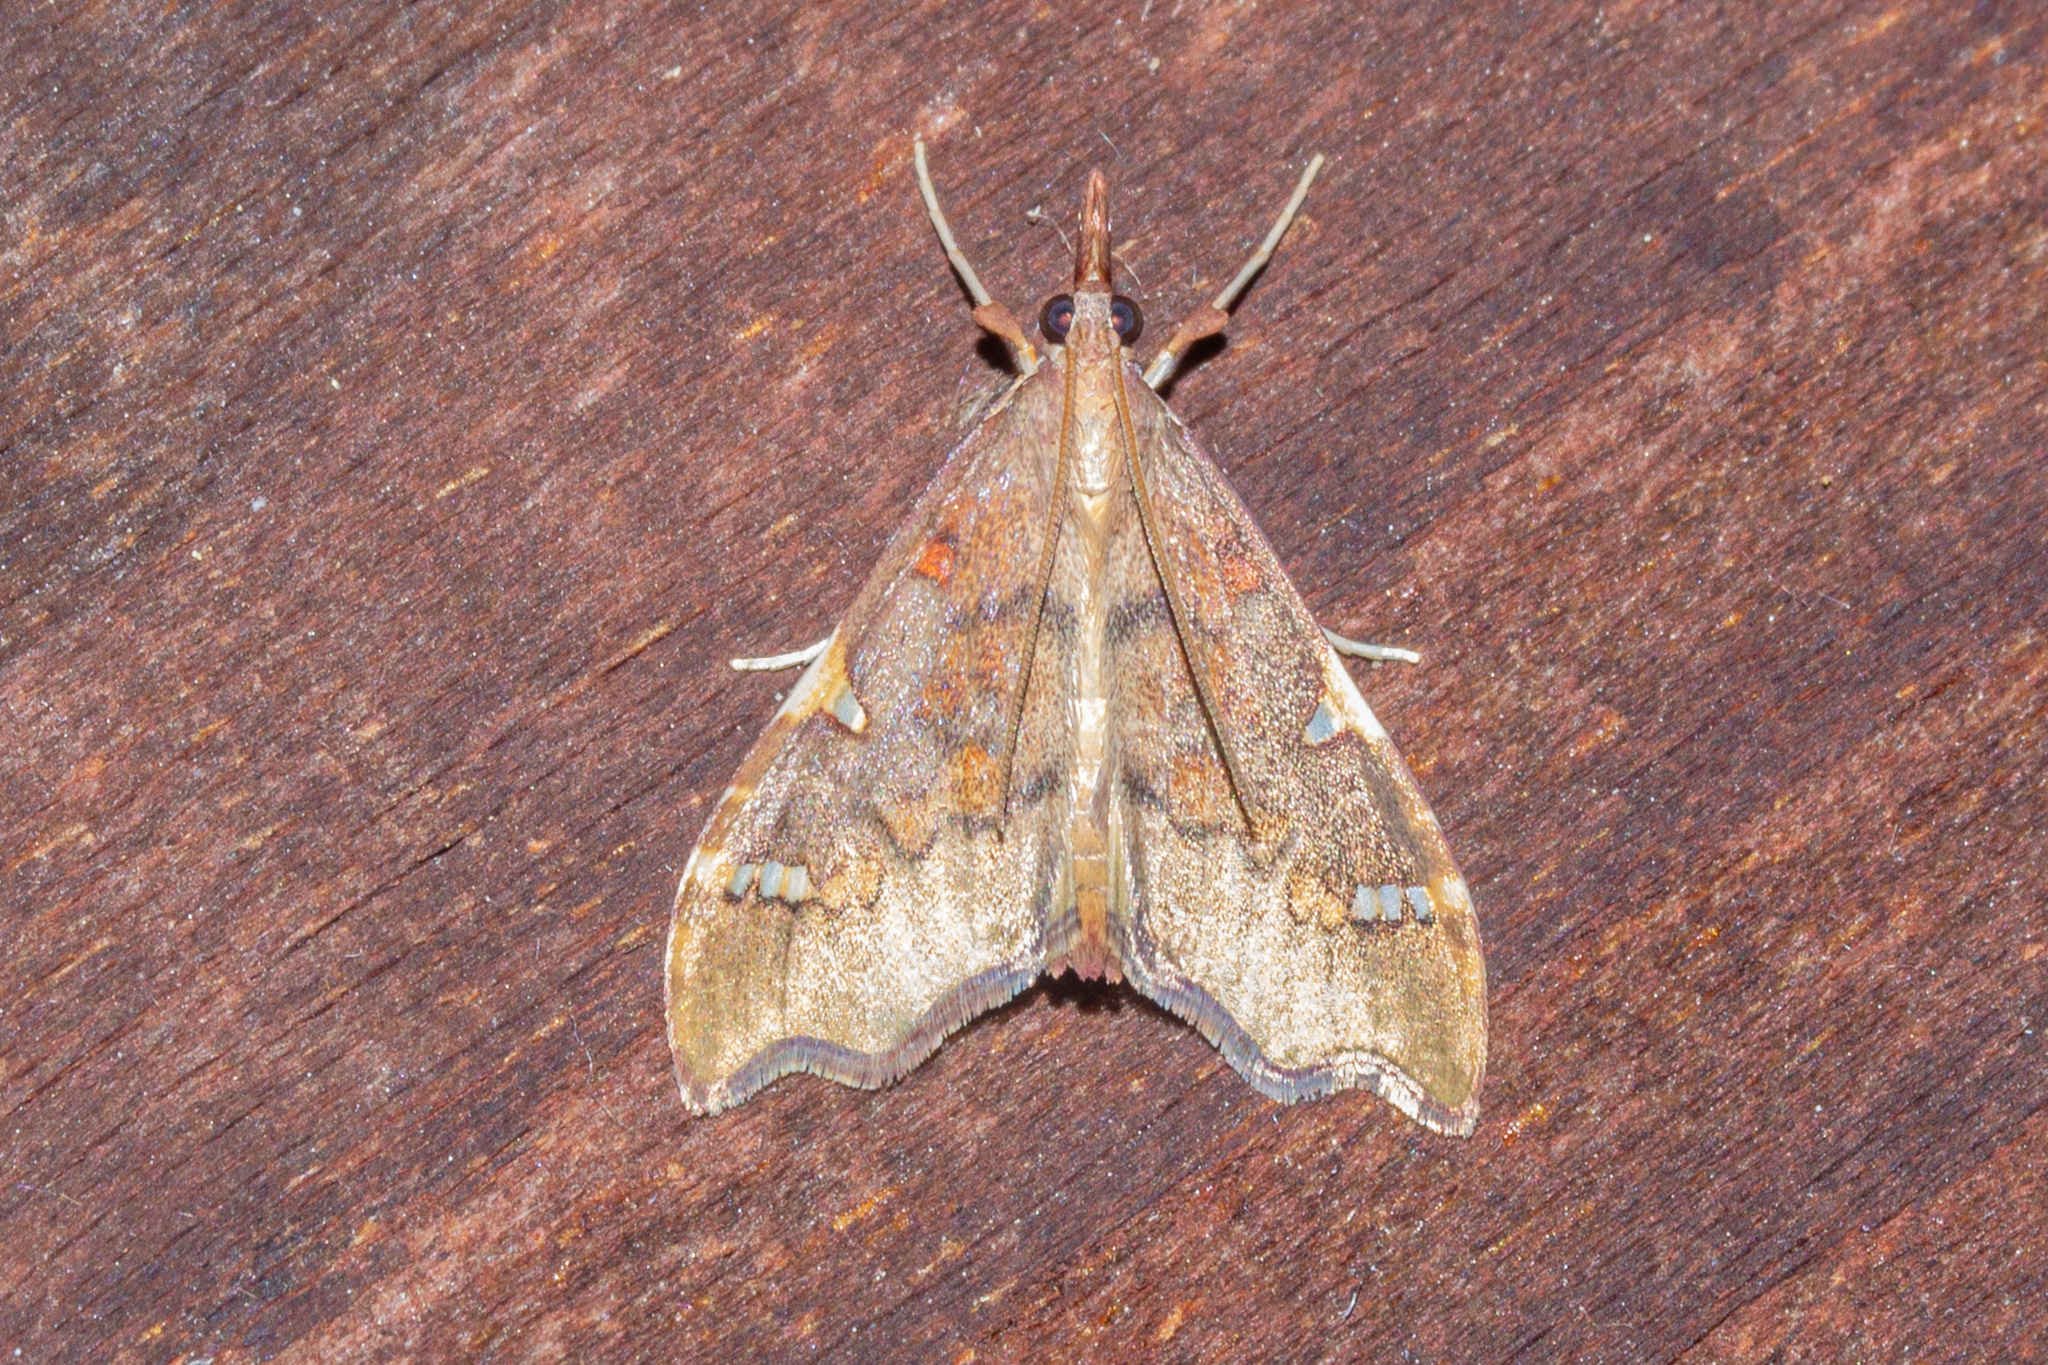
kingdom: Animalia
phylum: Arthropoda
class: Insecta
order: Lepidoptera
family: Crambidae
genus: Deana
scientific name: Deana hybreasalis
